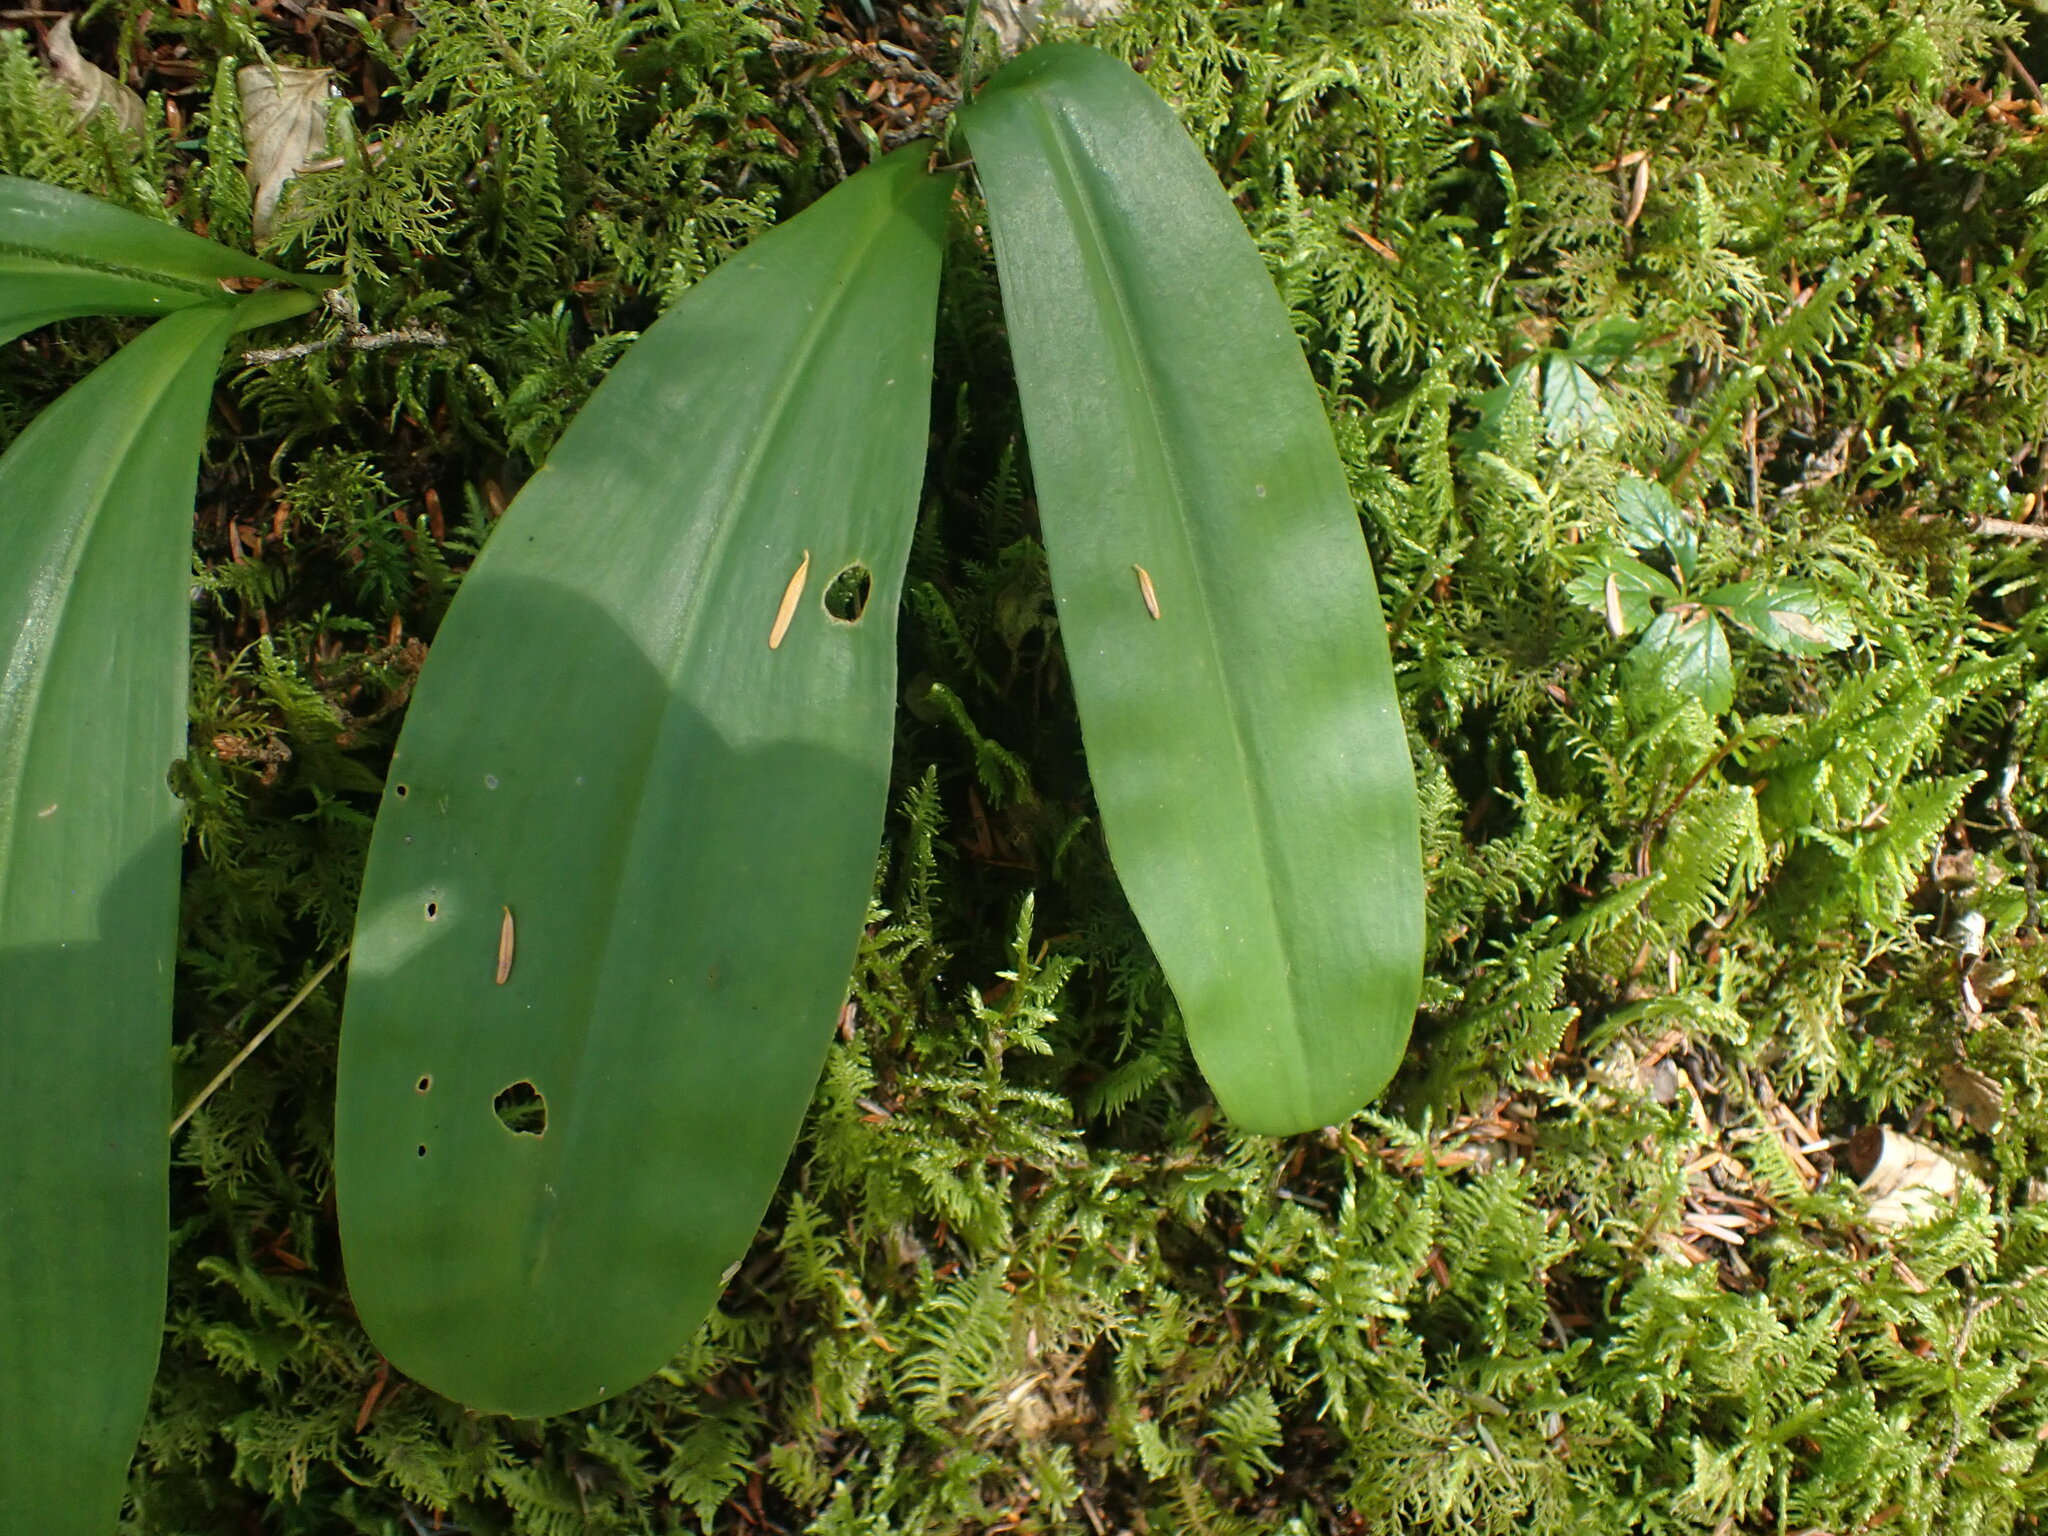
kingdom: Plantae
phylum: Tracheophyta
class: Liliopsida
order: Liliales
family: Liliaceae
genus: Clintonia
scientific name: Clintonia uniflora
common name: Queen's cup
